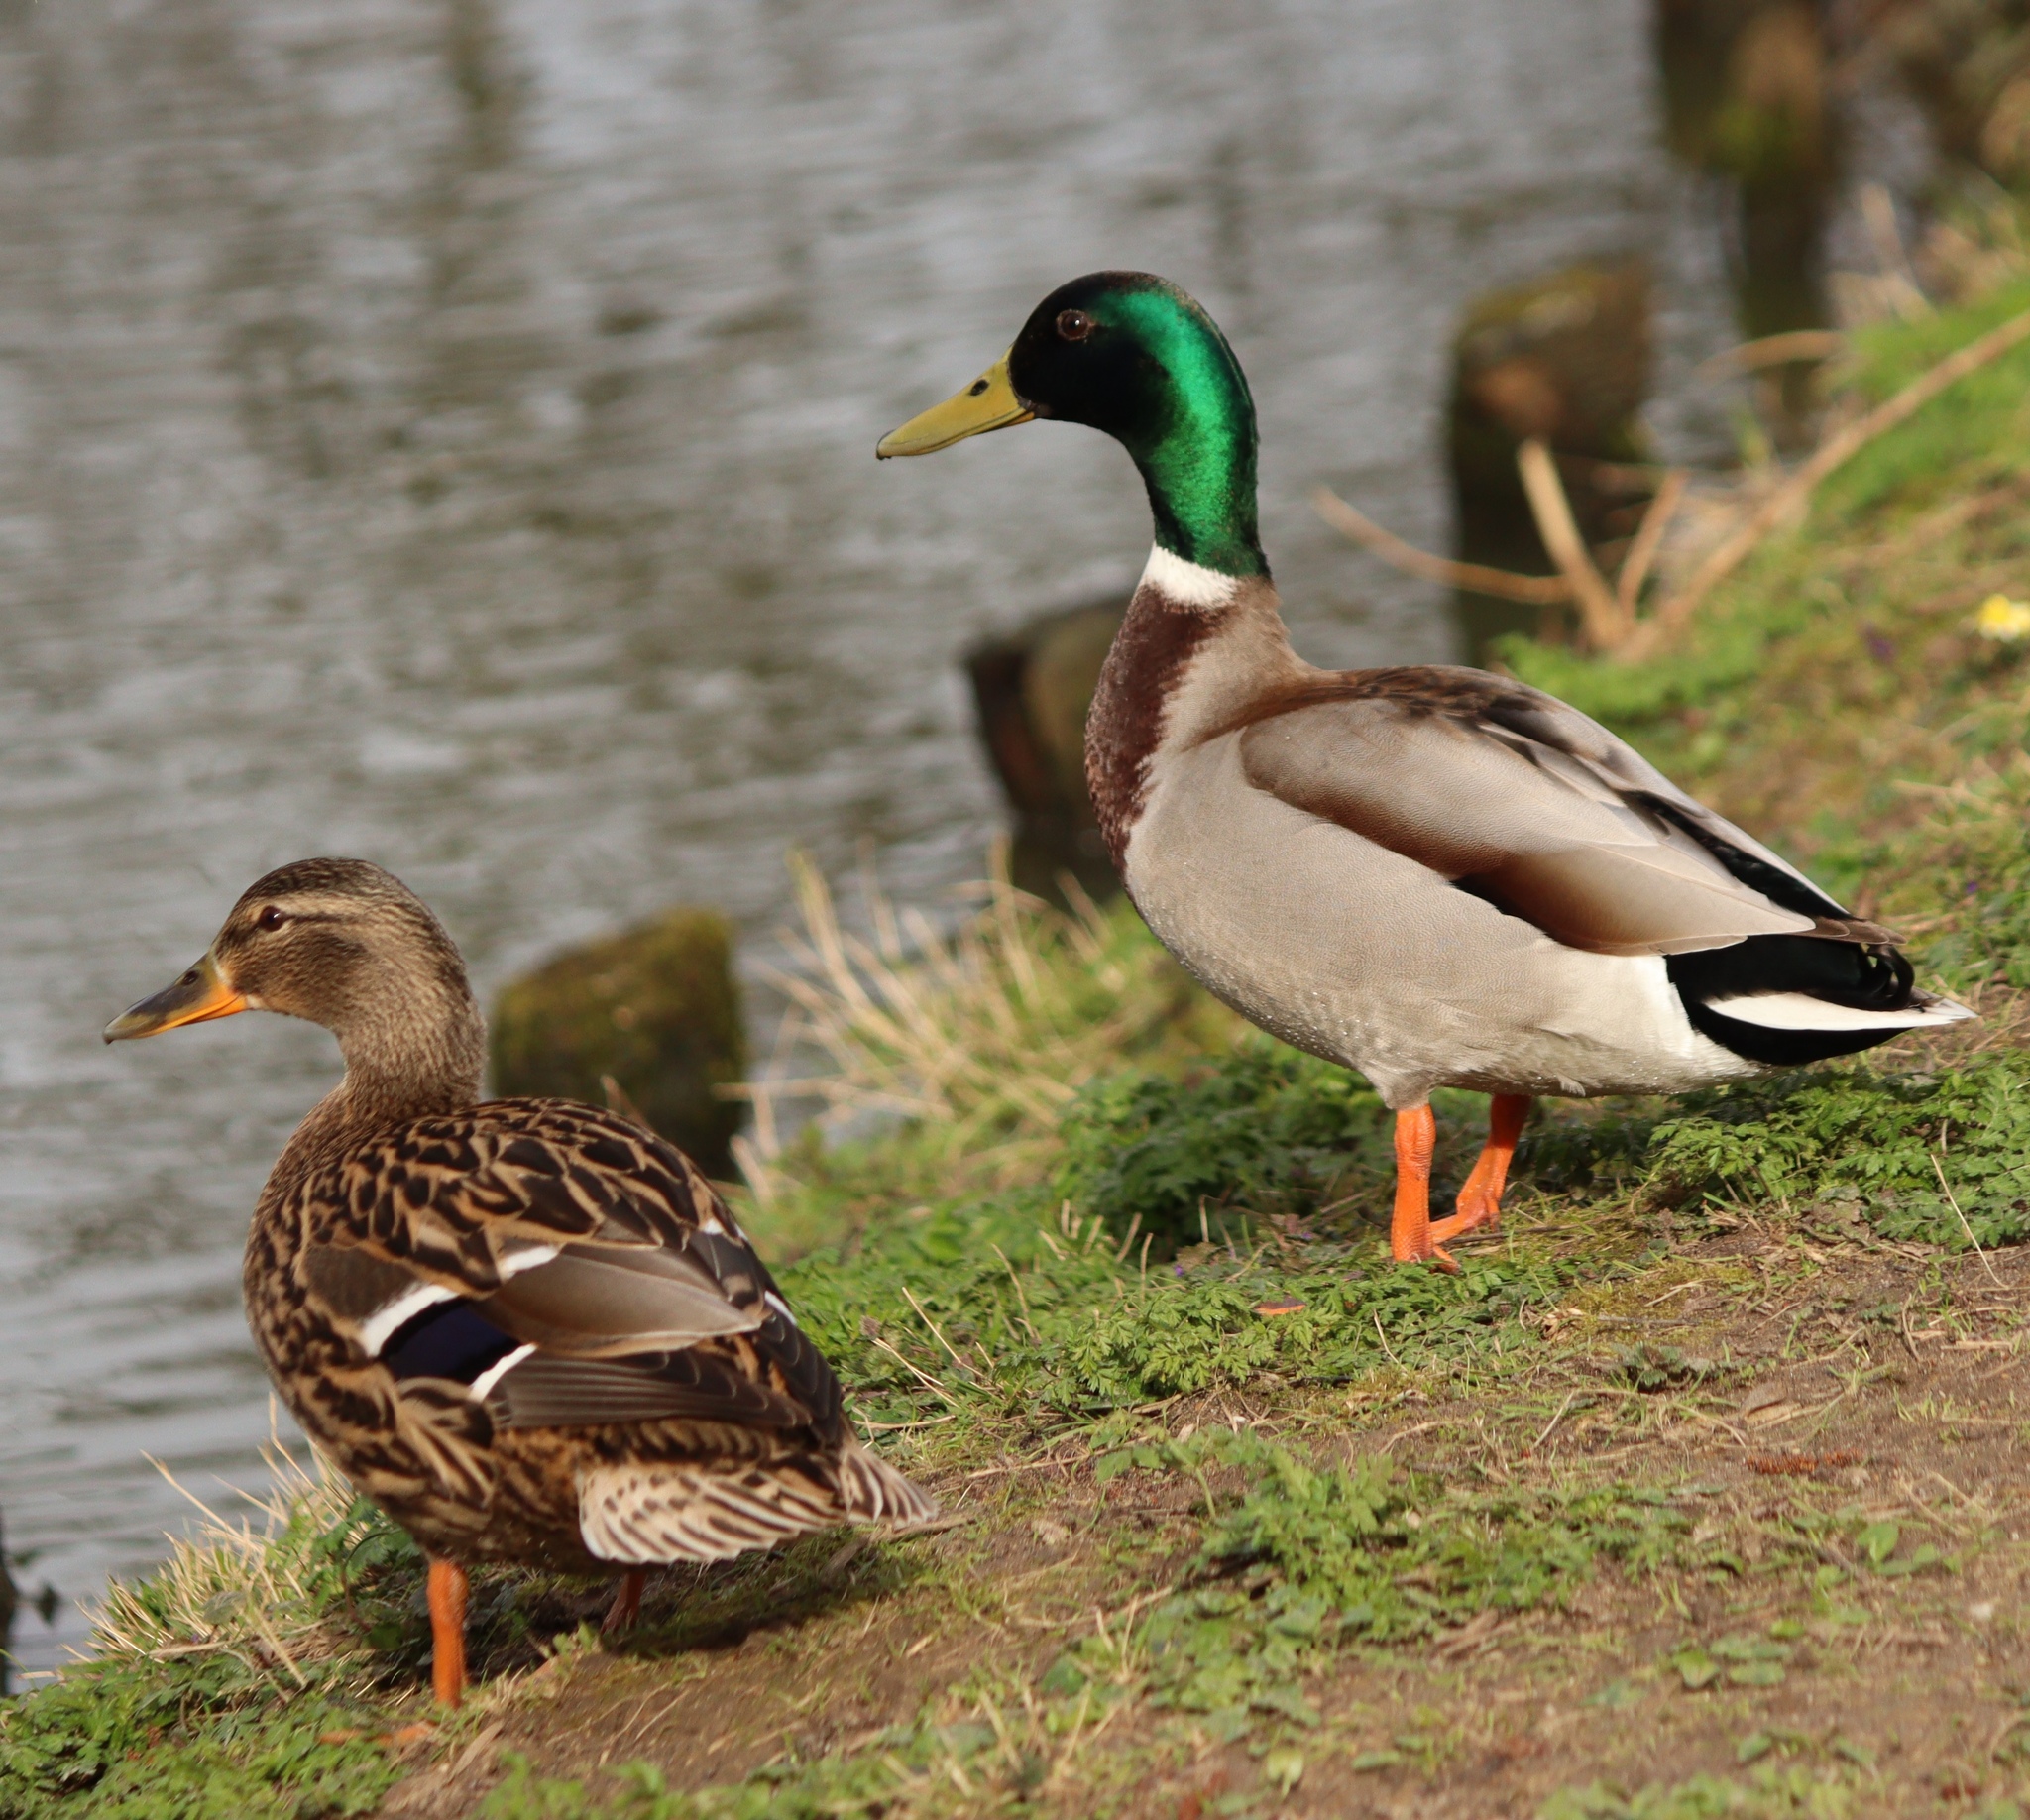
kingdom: Animalia
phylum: Chordata
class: Aves
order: Anseriformes
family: Anatidae
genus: Anas
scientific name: Anas platyrhynchos
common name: Mallard
